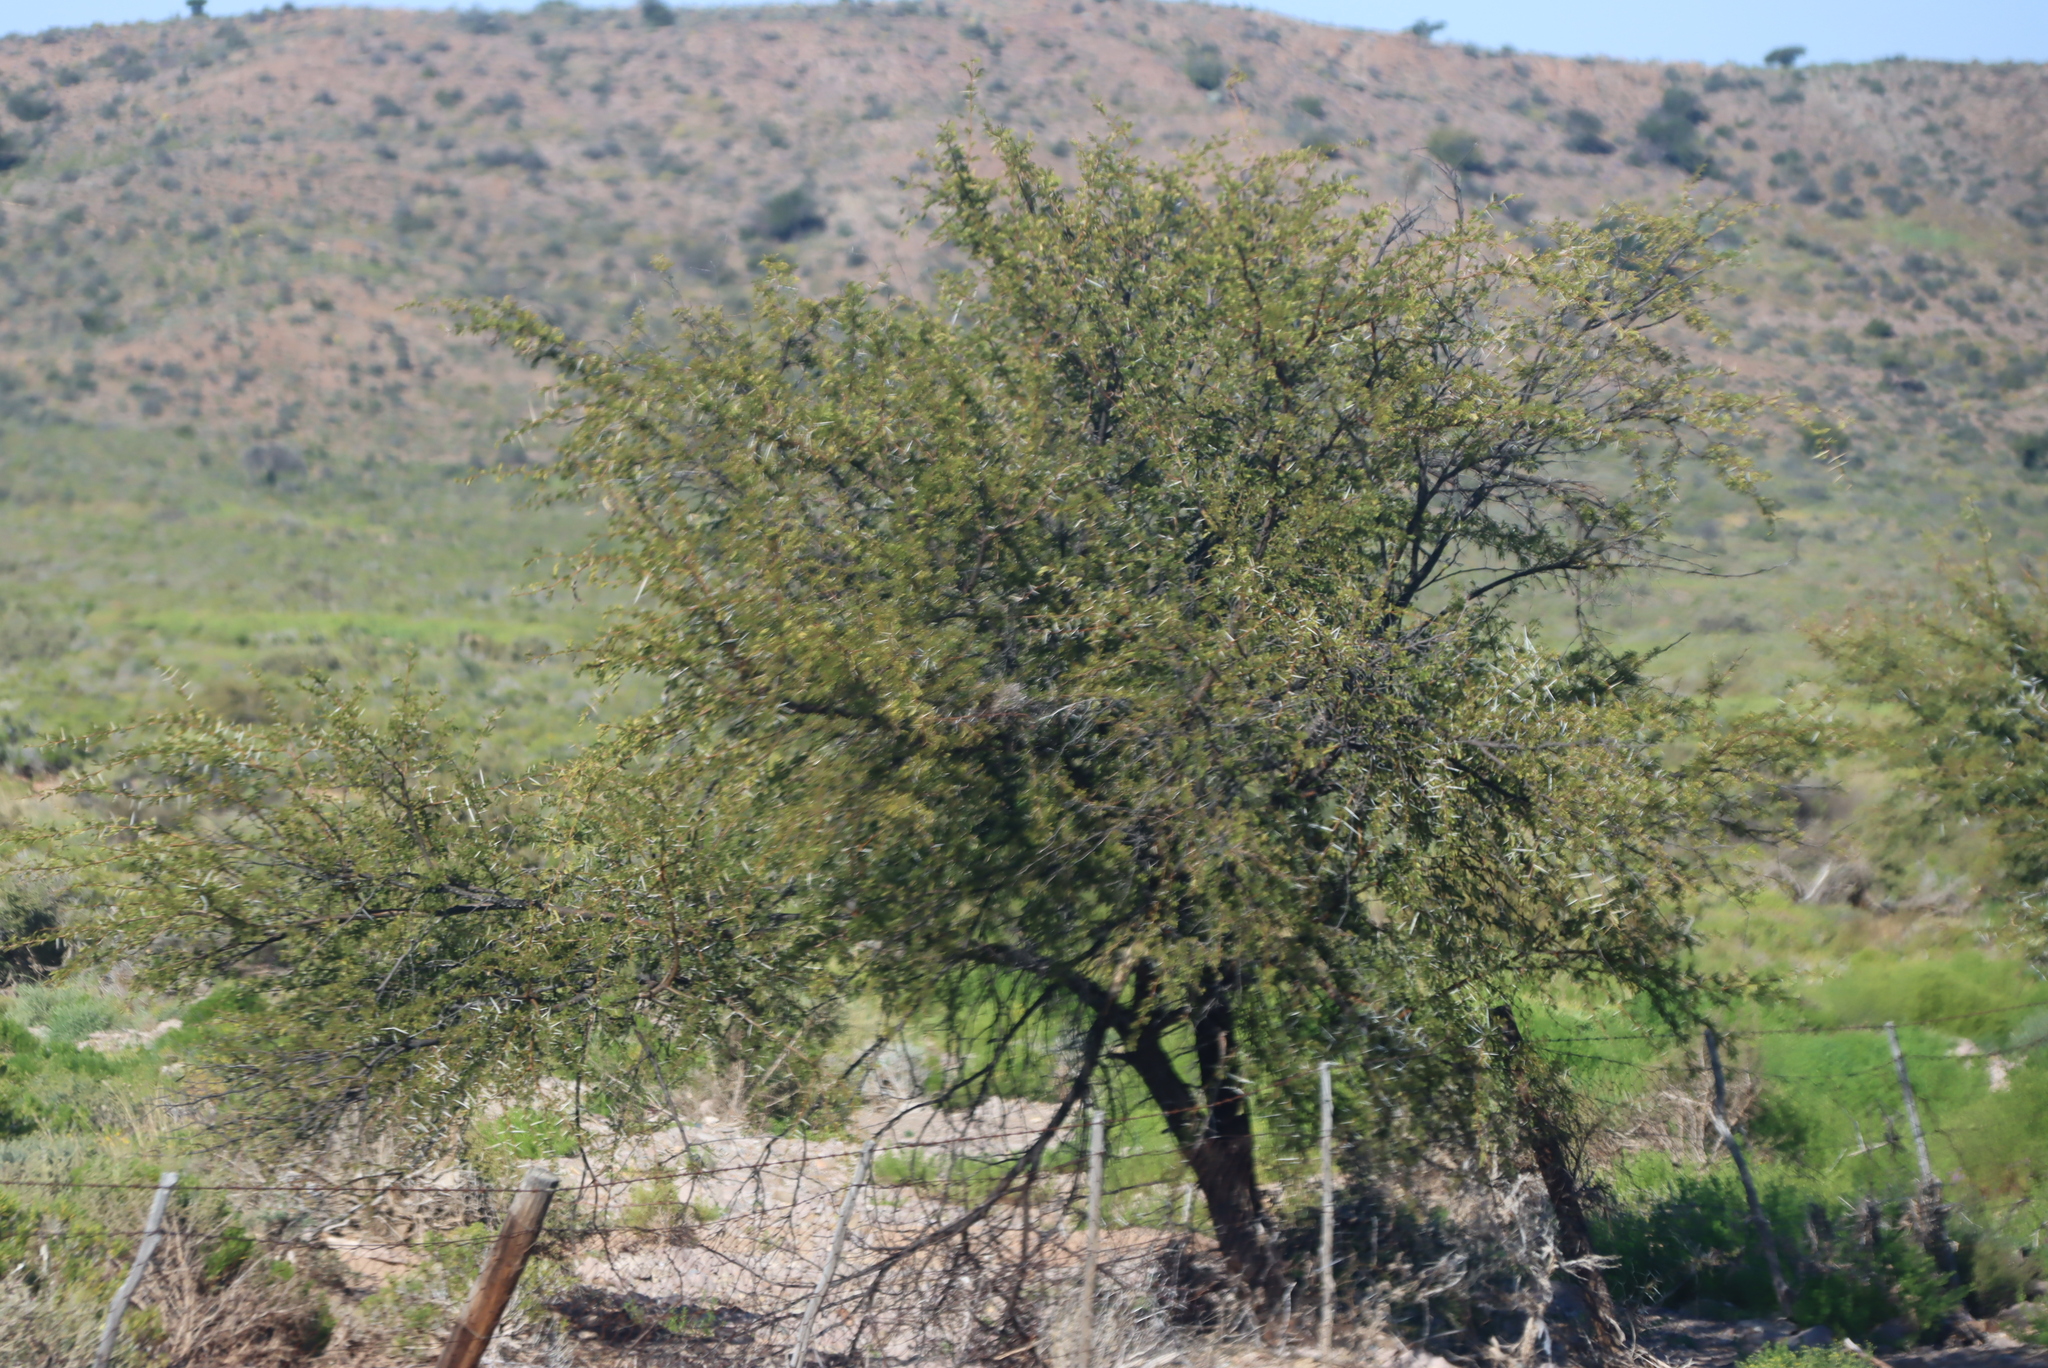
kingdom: Plantae
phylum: Tracheophyta
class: Magnoliopsida
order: Fabales
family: Fabaceae
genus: Vachellia
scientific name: Vachellia karroo
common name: Sweet thorn
